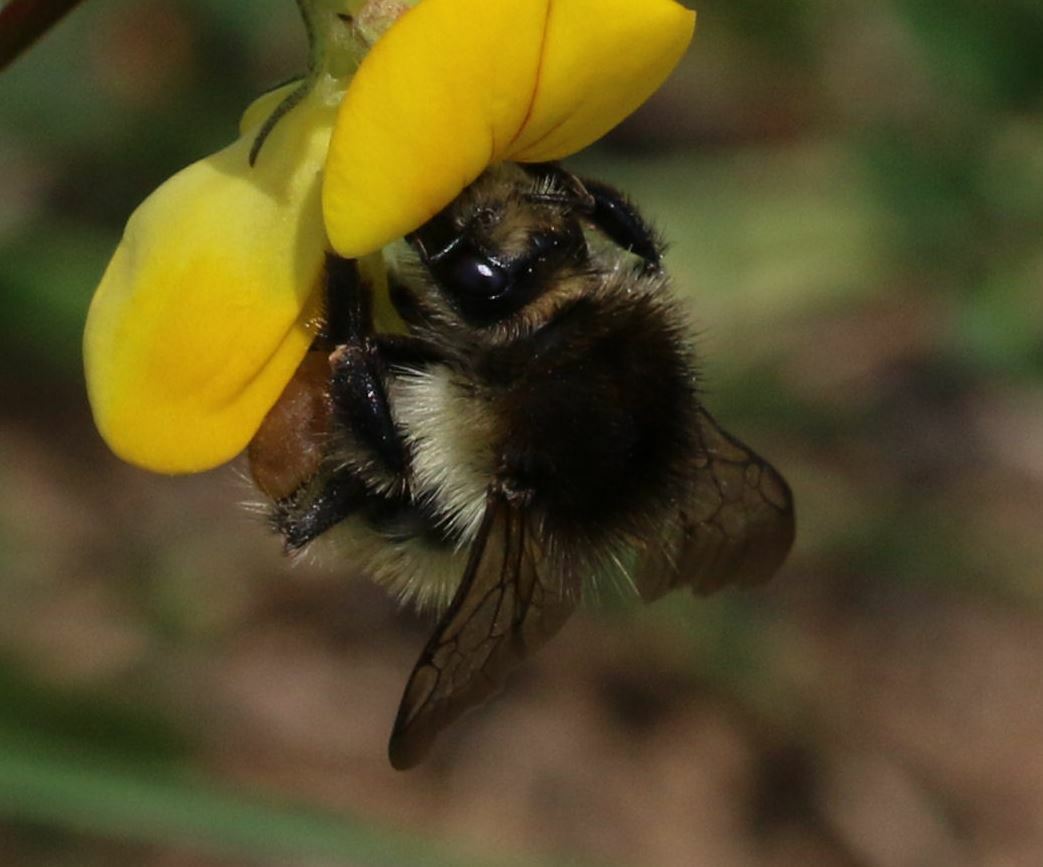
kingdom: Animalia
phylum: Arthropoda
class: Insecta
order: Hymenoptera
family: Apidae
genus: Bombus
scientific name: Bombus humilis
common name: Brown-banded carder-bee
